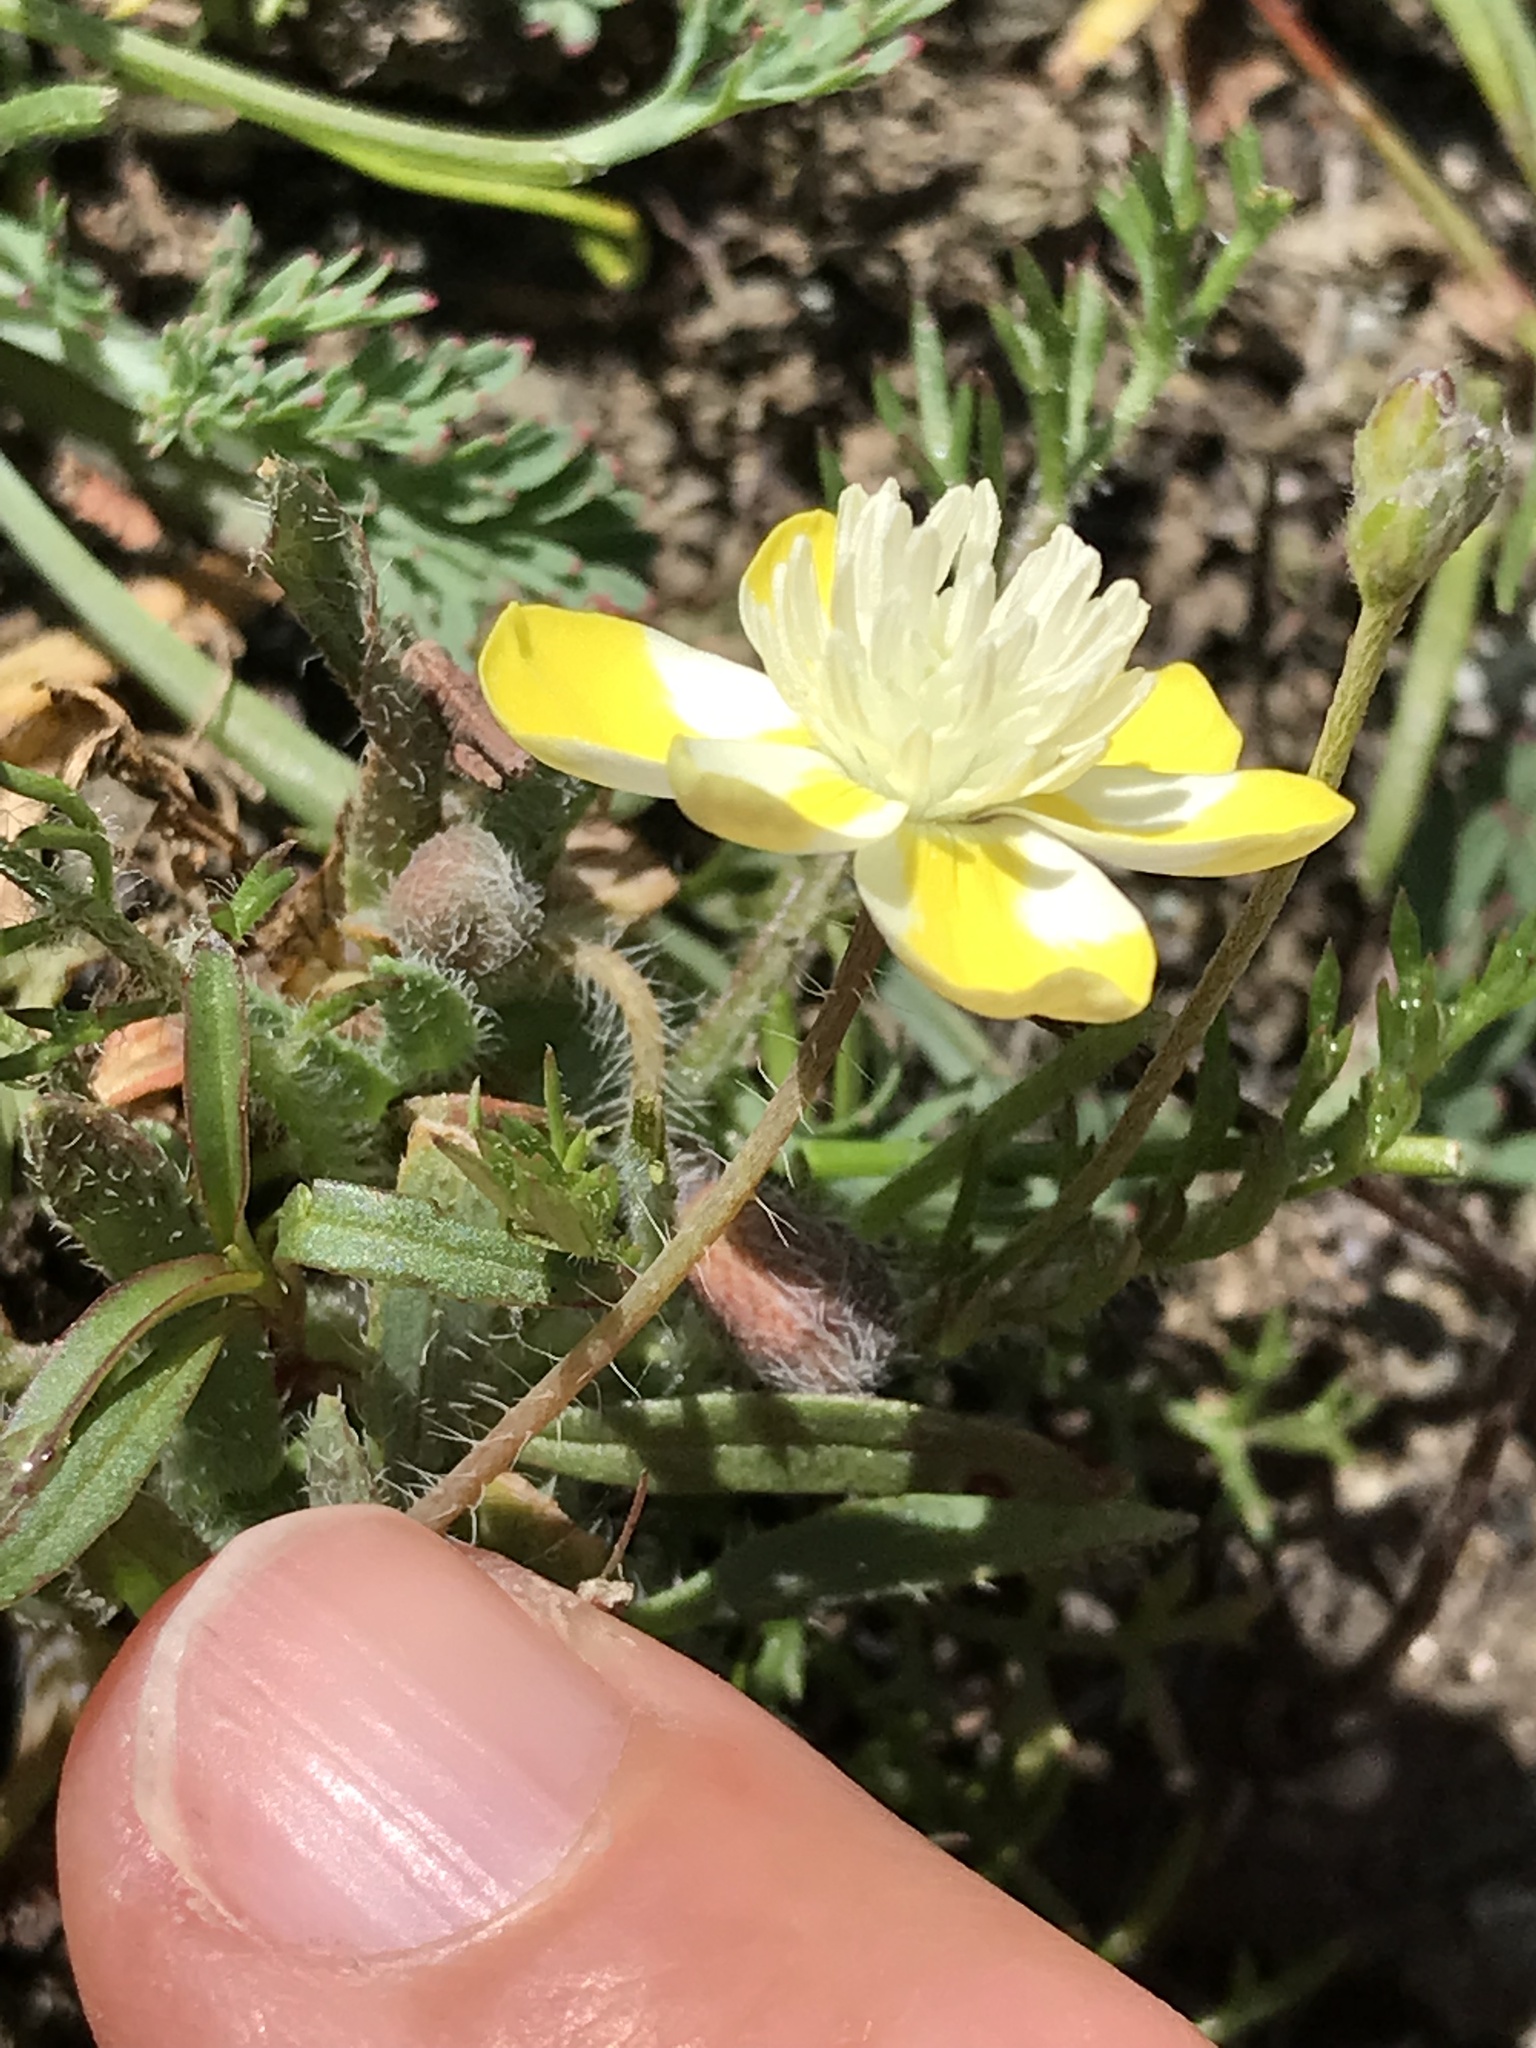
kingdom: Plantae
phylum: Tracheophyta
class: Magnoliopsida
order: Ranunculales
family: Papaveraceae
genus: Platystemon
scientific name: Platystemon californicus
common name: Cream-cups
